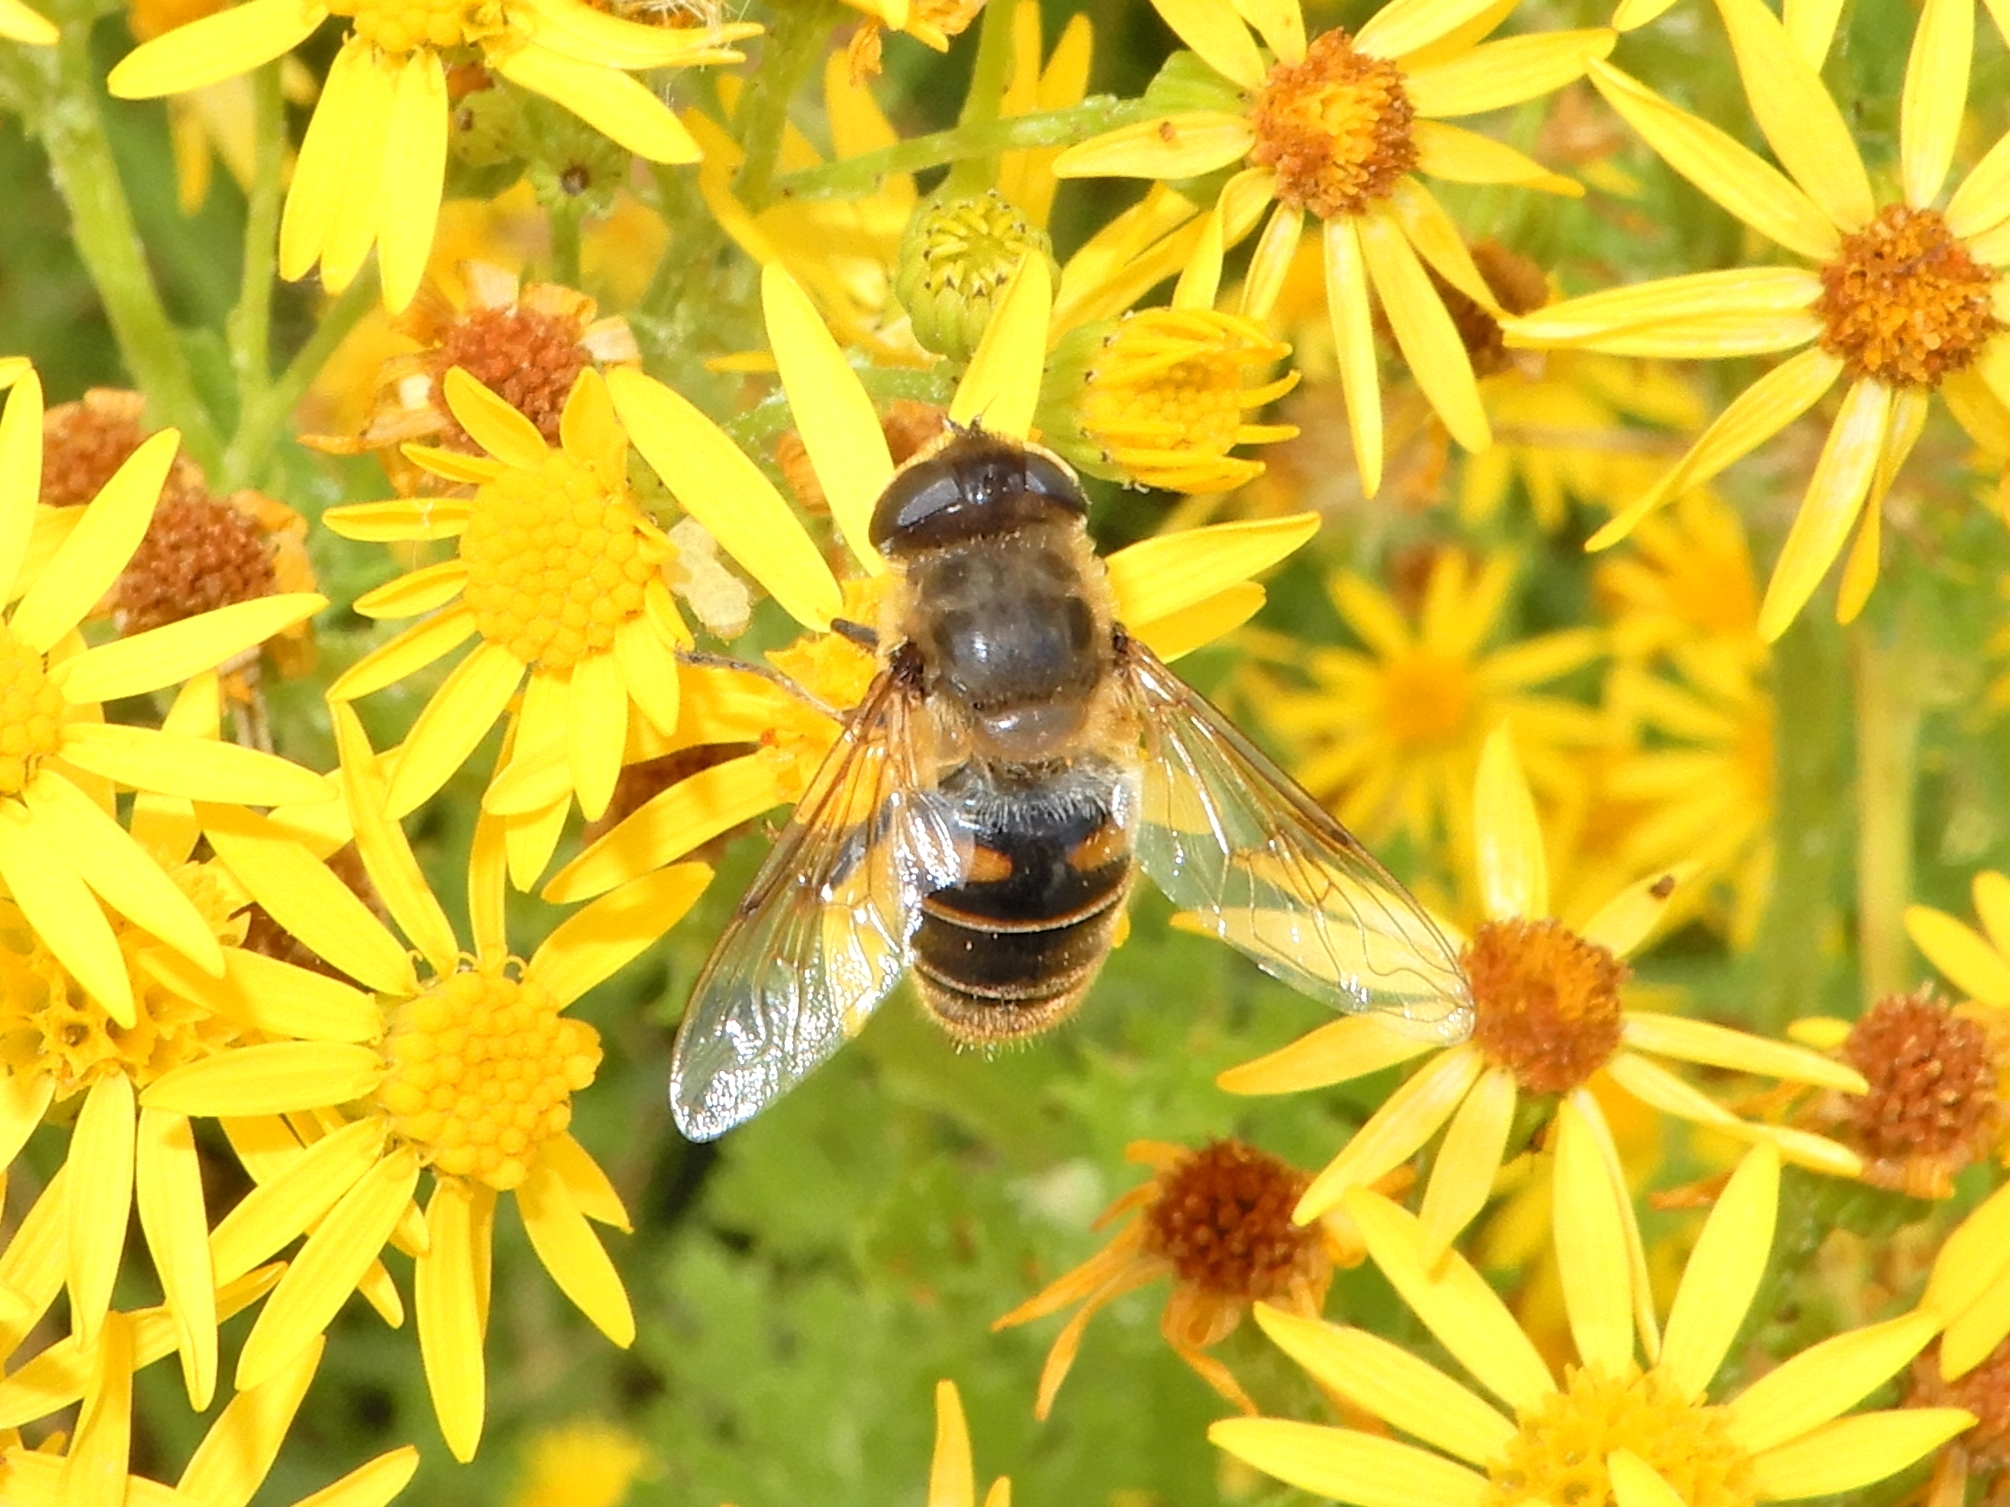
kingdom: Animalia
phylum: Arthropoda
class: Insecta
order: Diptera
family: Syrphidae
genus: Eristalis
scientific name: Eristalis tenax
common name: Drone fly
